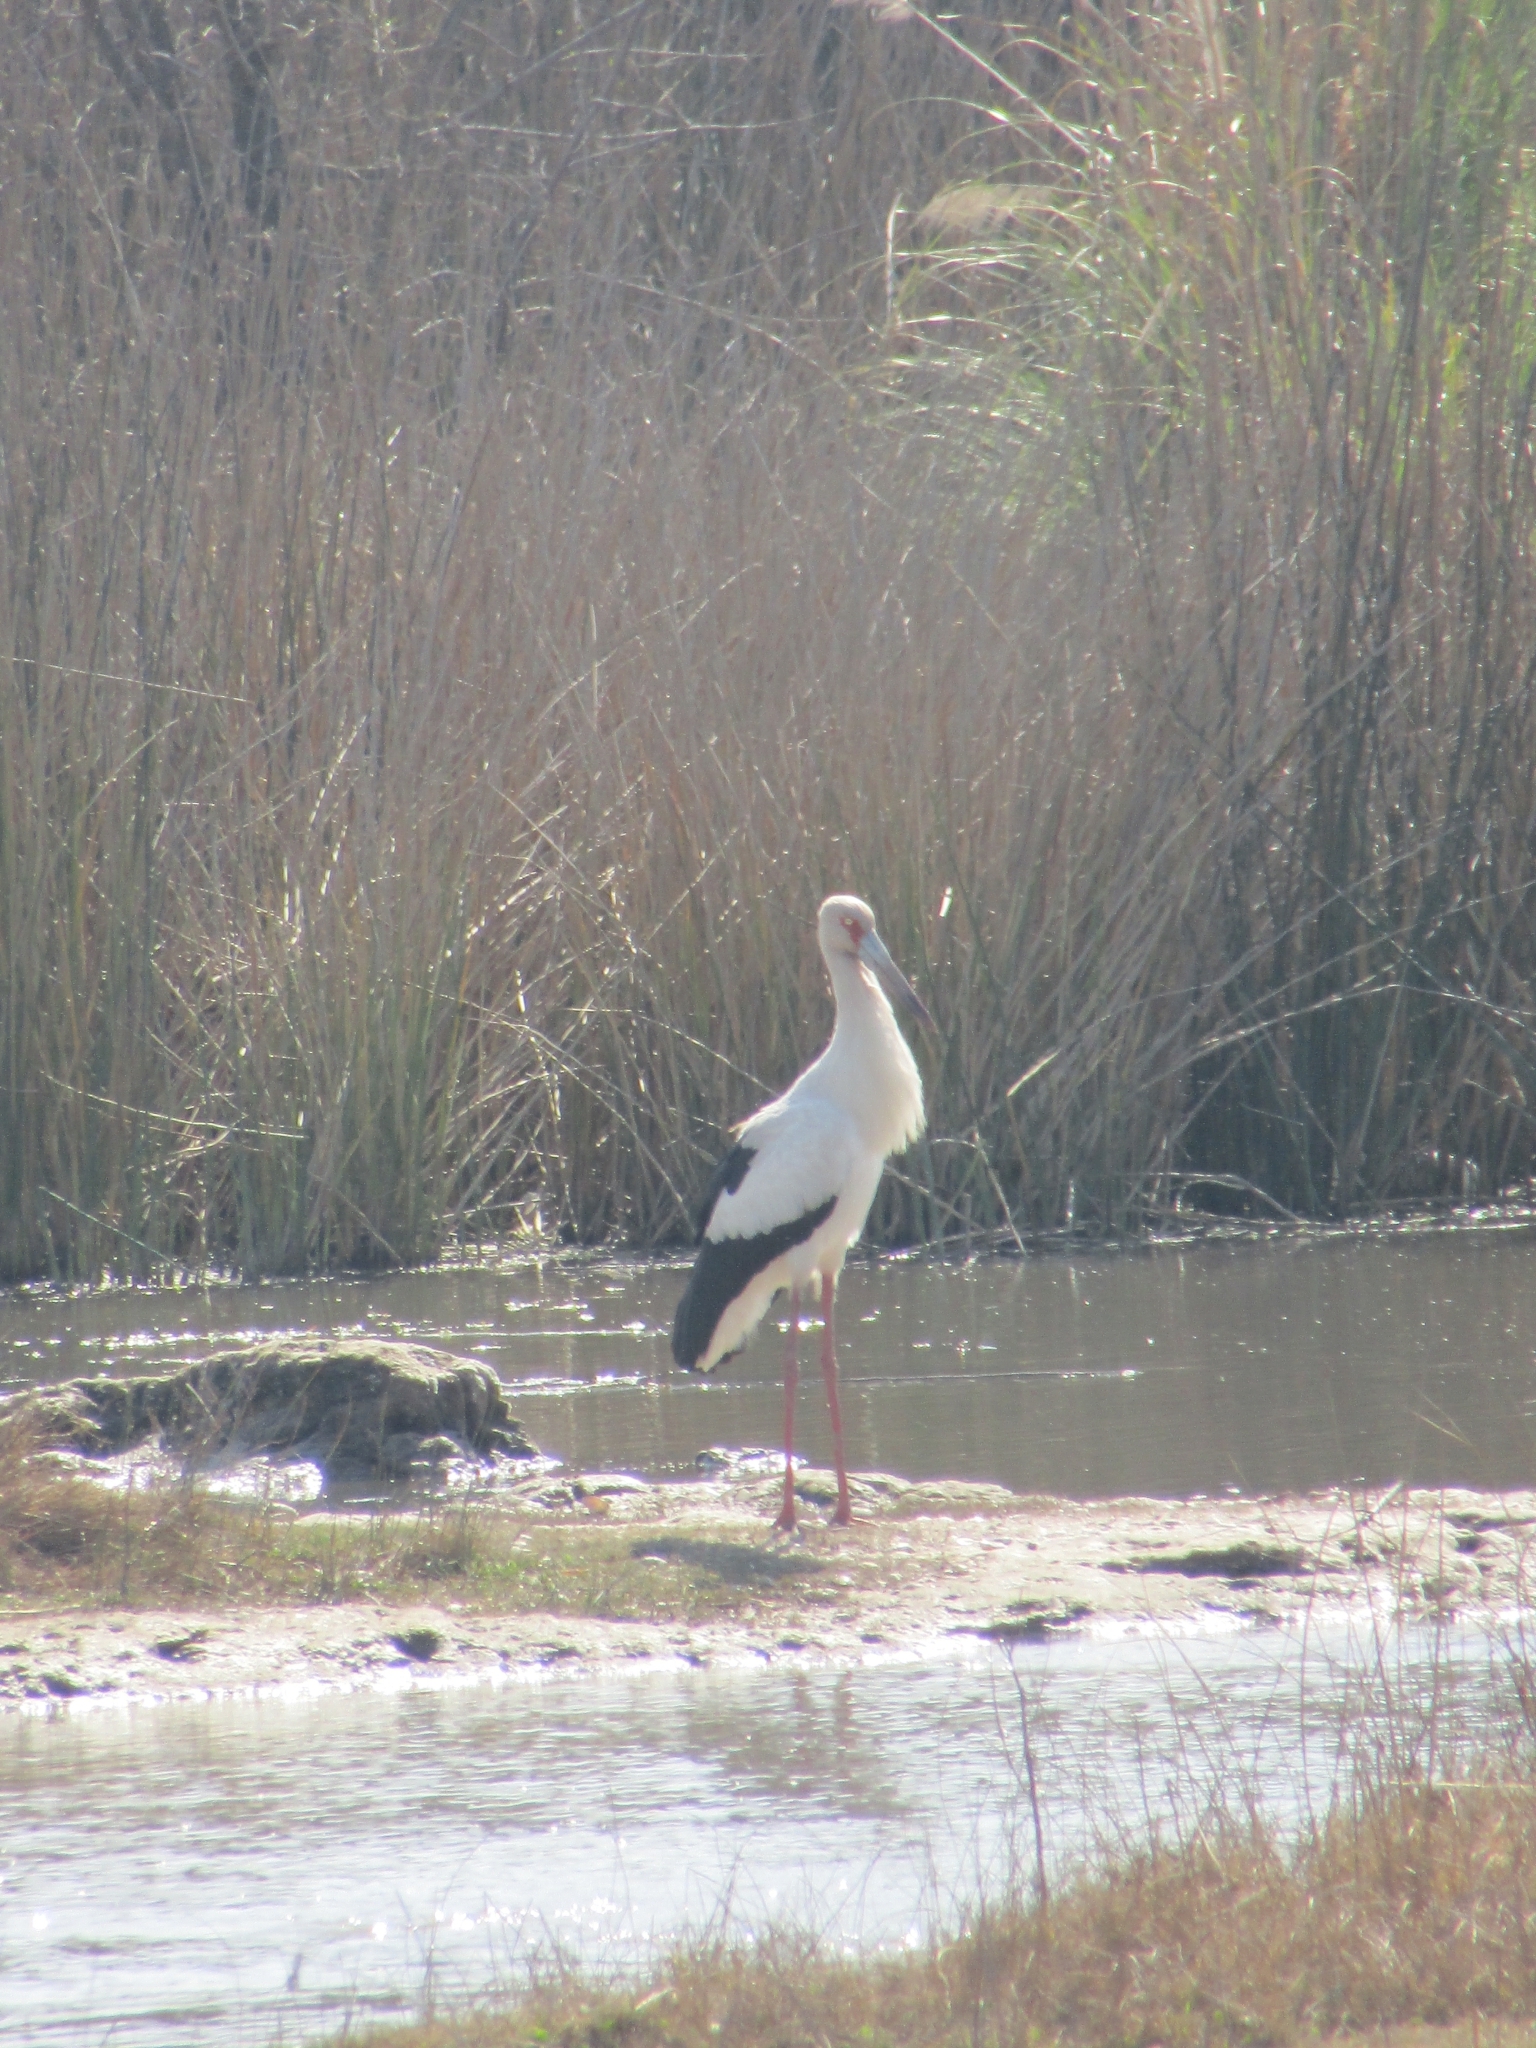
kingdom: Animalia
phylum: Chordata
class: Aves
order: Ciconiiformes
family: Ciconiidae
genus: Ciconia
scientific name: Ciconia maguari
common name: Maguari stork
